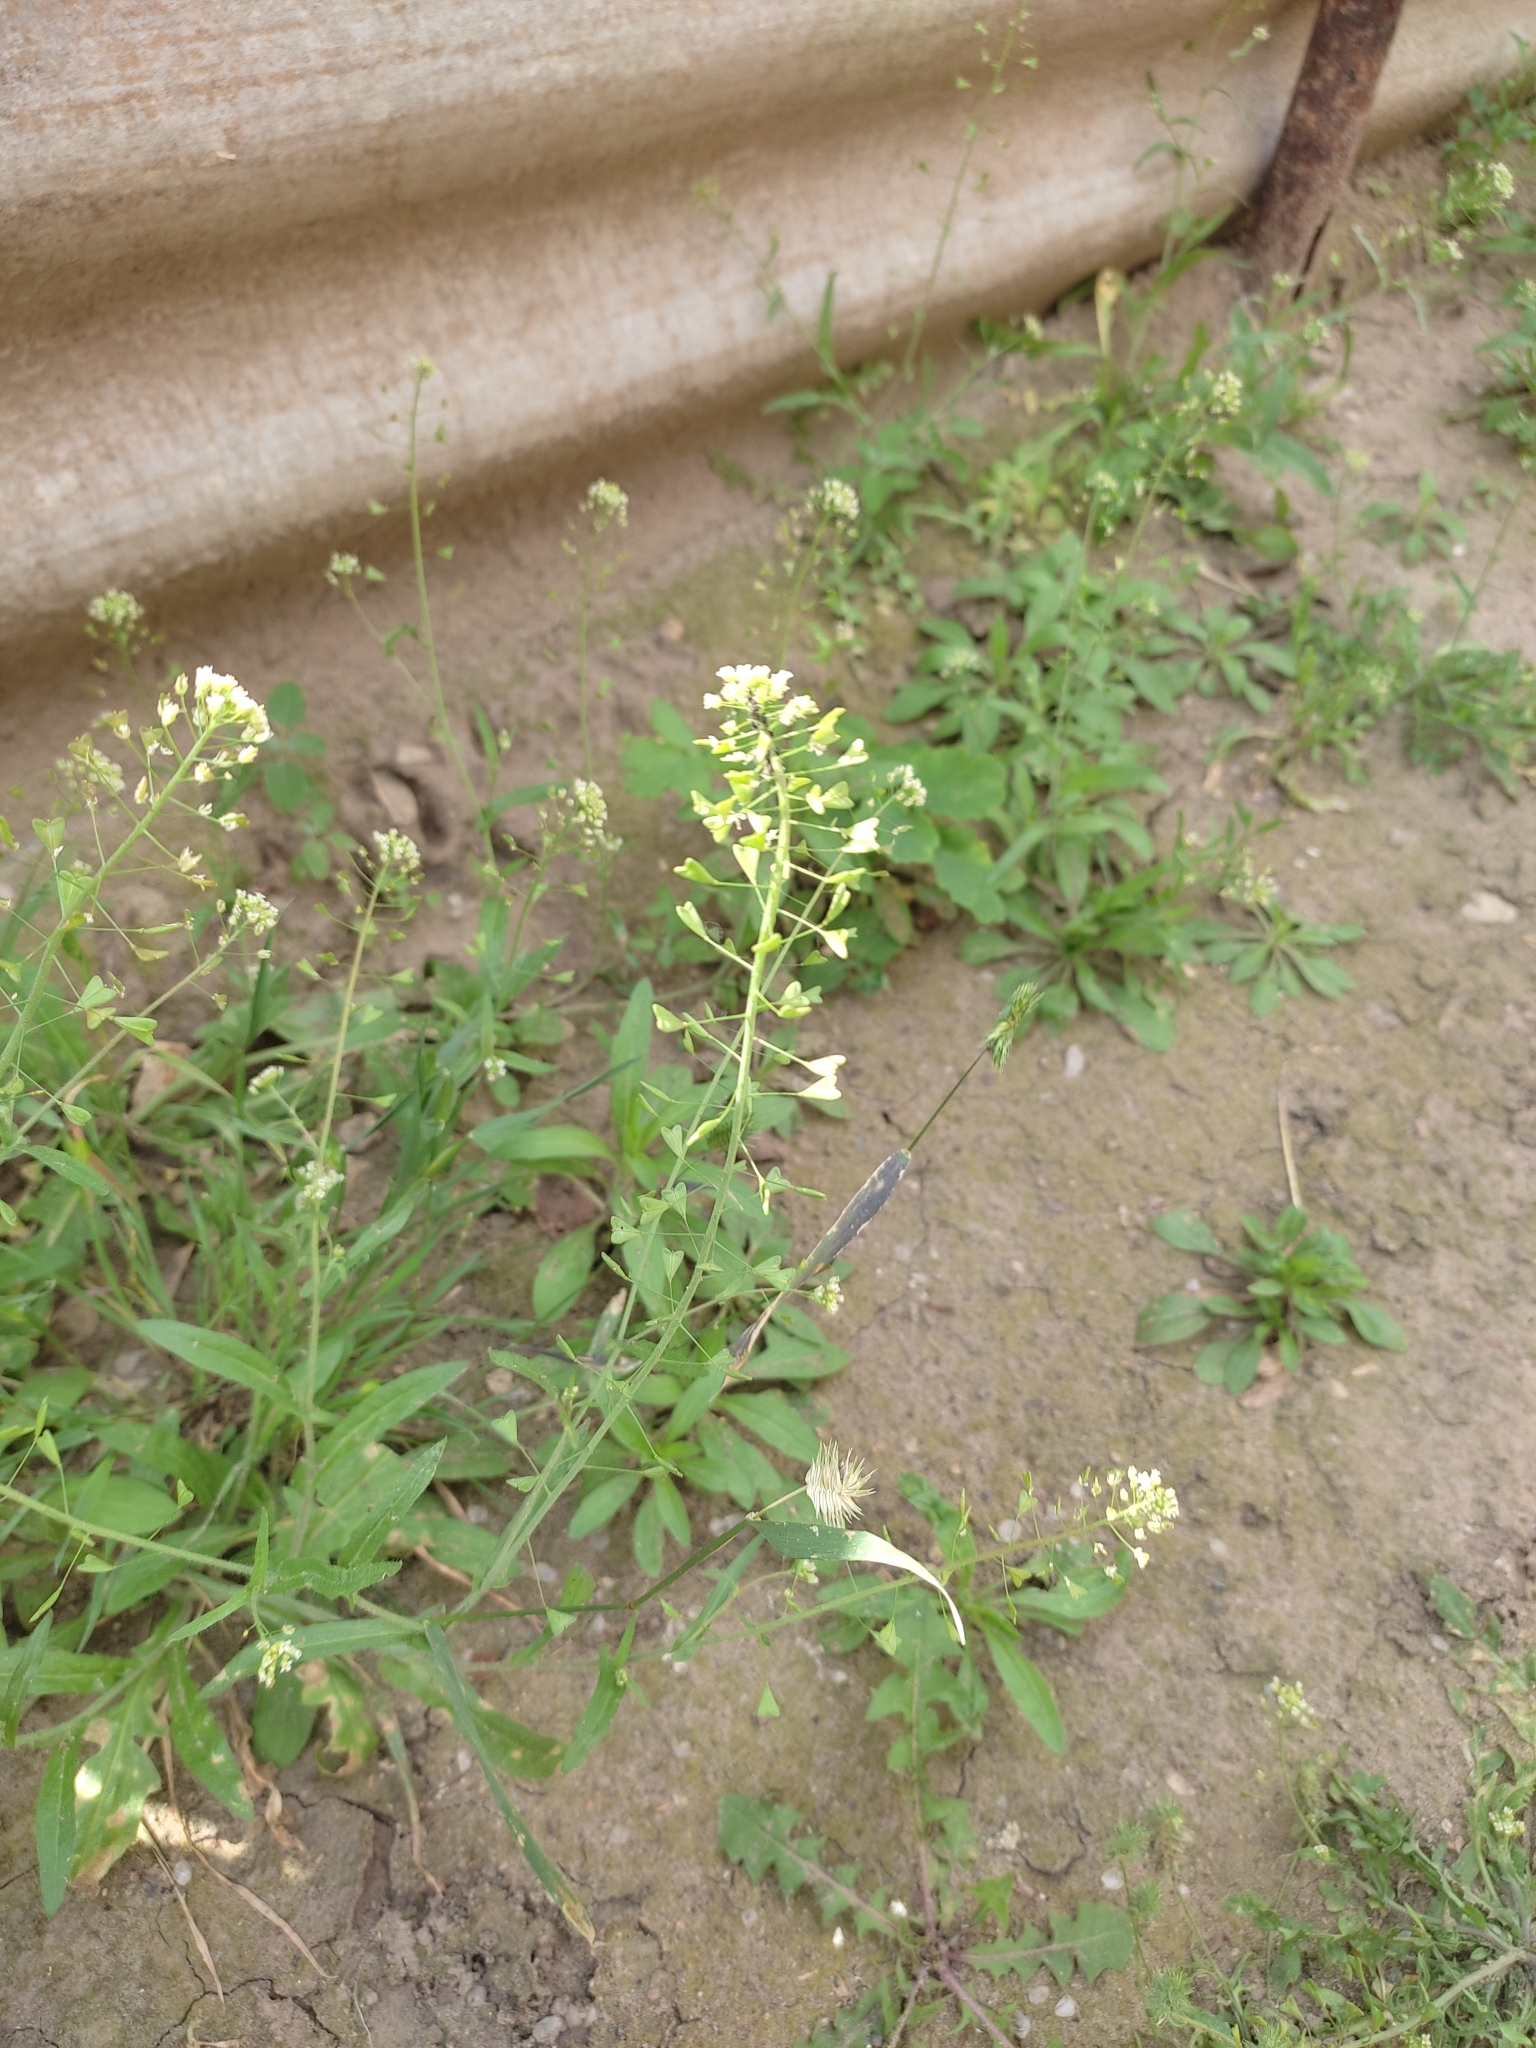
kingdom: Plantae
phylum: Tracheophyta
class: Magnoliopsida
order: Brassicales
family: Brassicaceae
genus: Capsella
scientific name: Capsella bursa-pastoris
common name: Shepherd's purse
